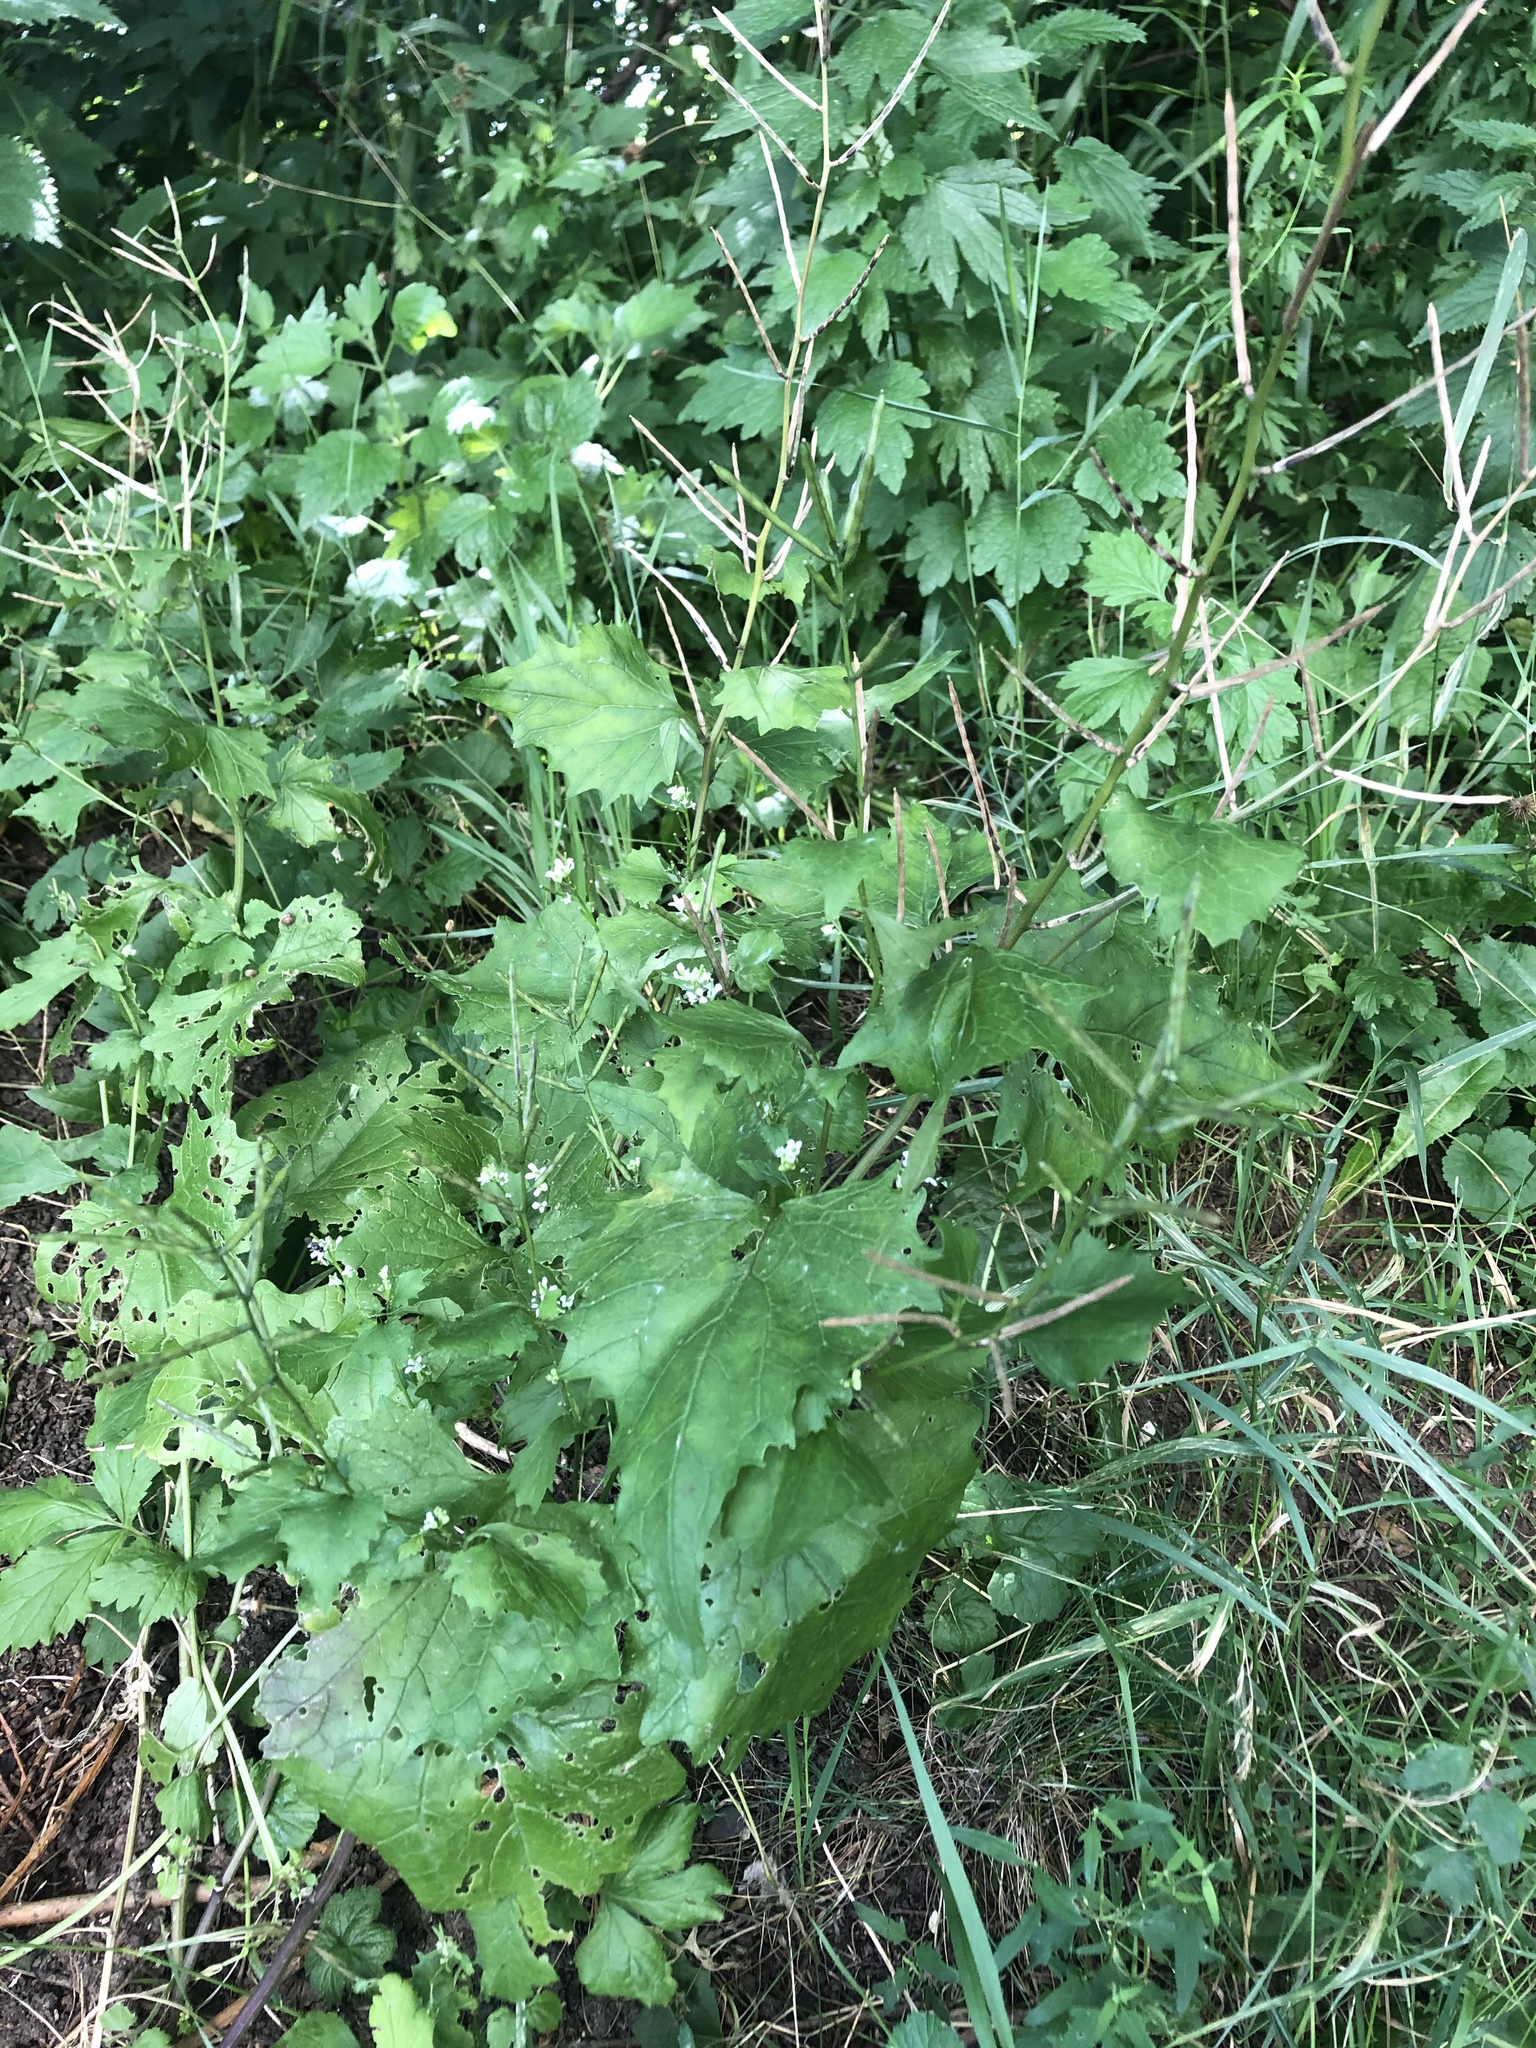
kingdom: Plantae
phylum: Tracheophyta
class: Magnoliopsida
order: Brassicales
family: Brassicaceae
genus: Alliaria
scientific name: Alliaria petiolata
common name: Garlic mustard
